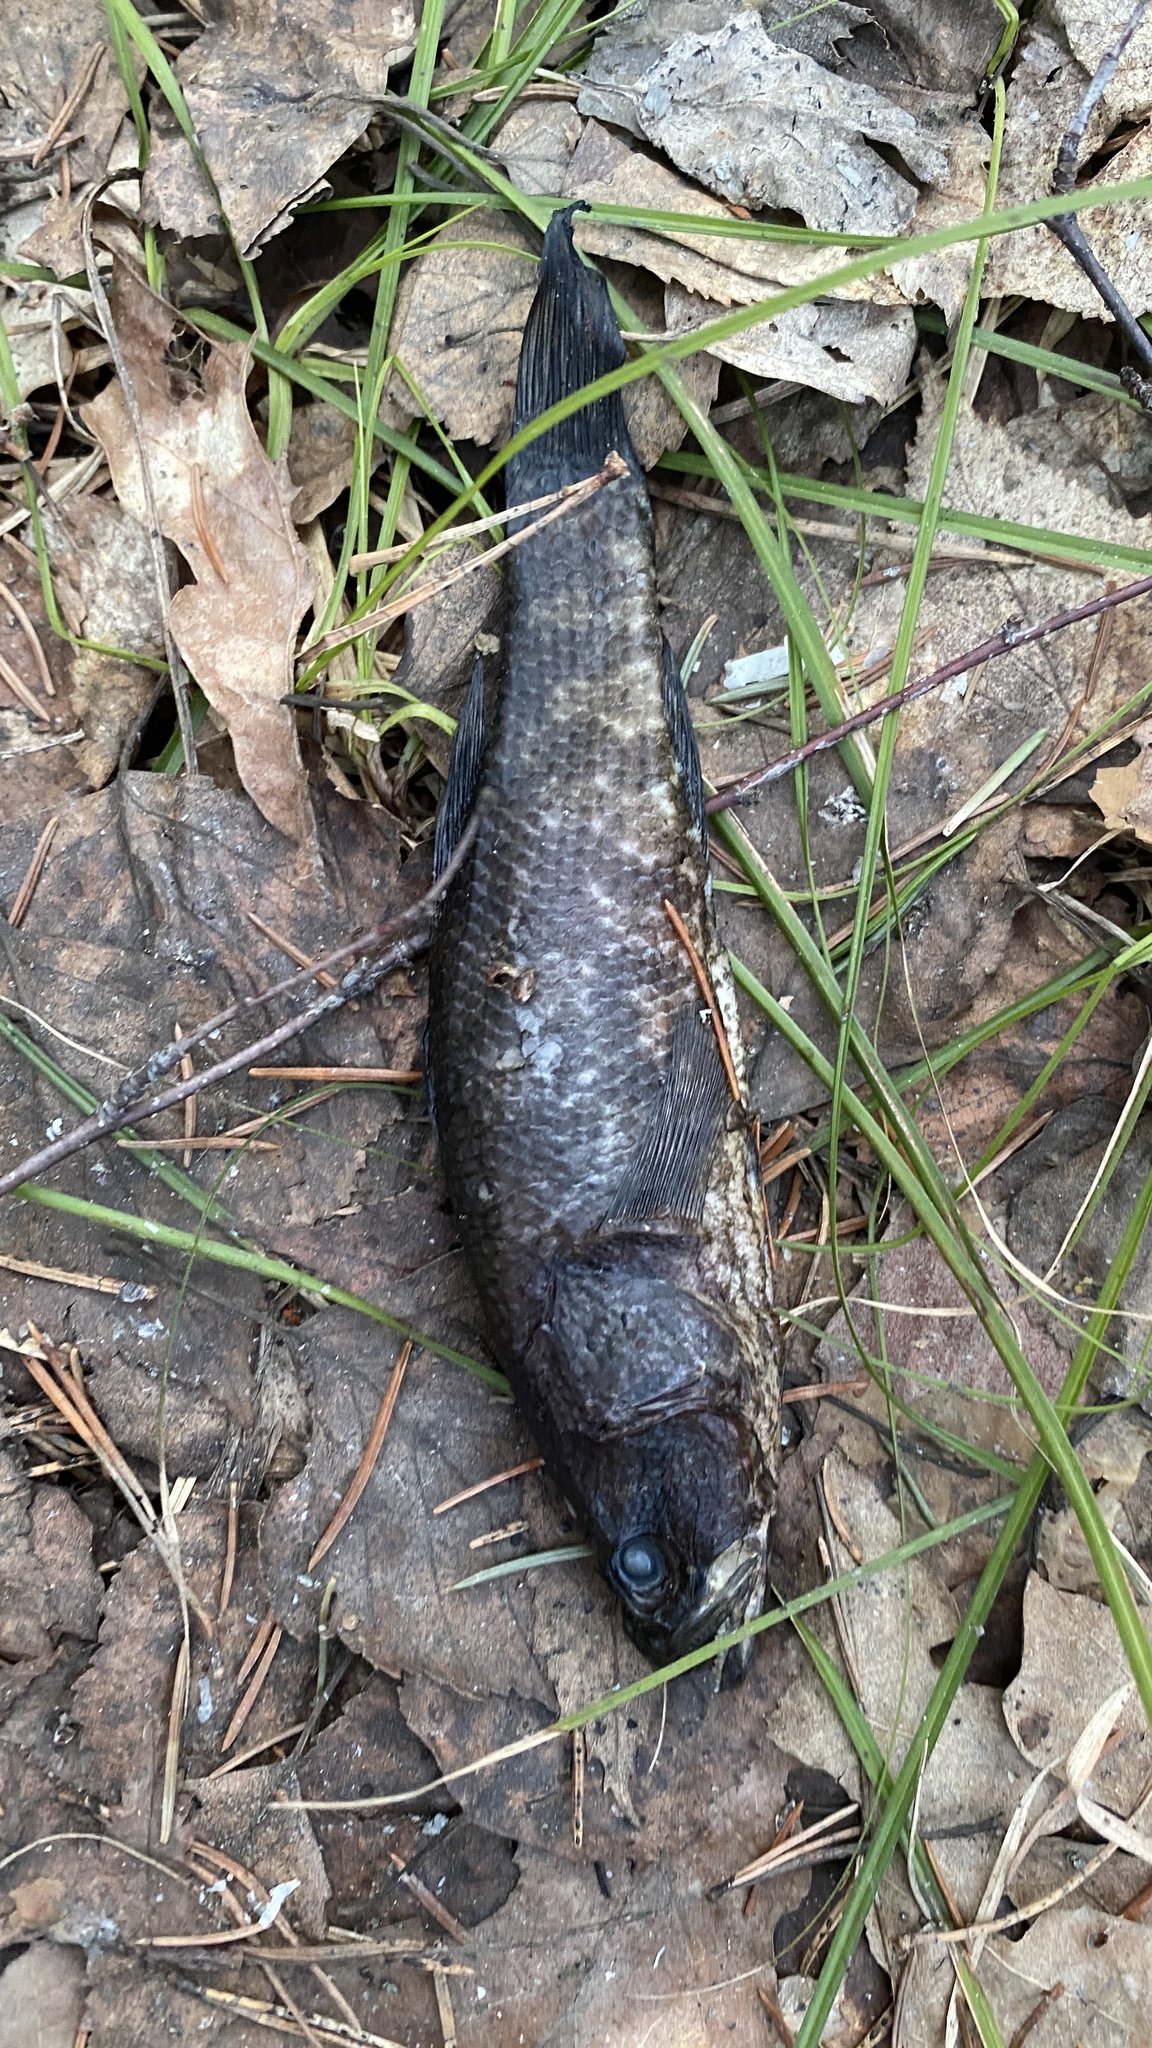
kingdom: Animalia
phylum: Chordata
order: Perciformes
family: Odontobutidae
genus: Perccottus
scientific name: Perccottus glenii
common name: Amur sleeper
